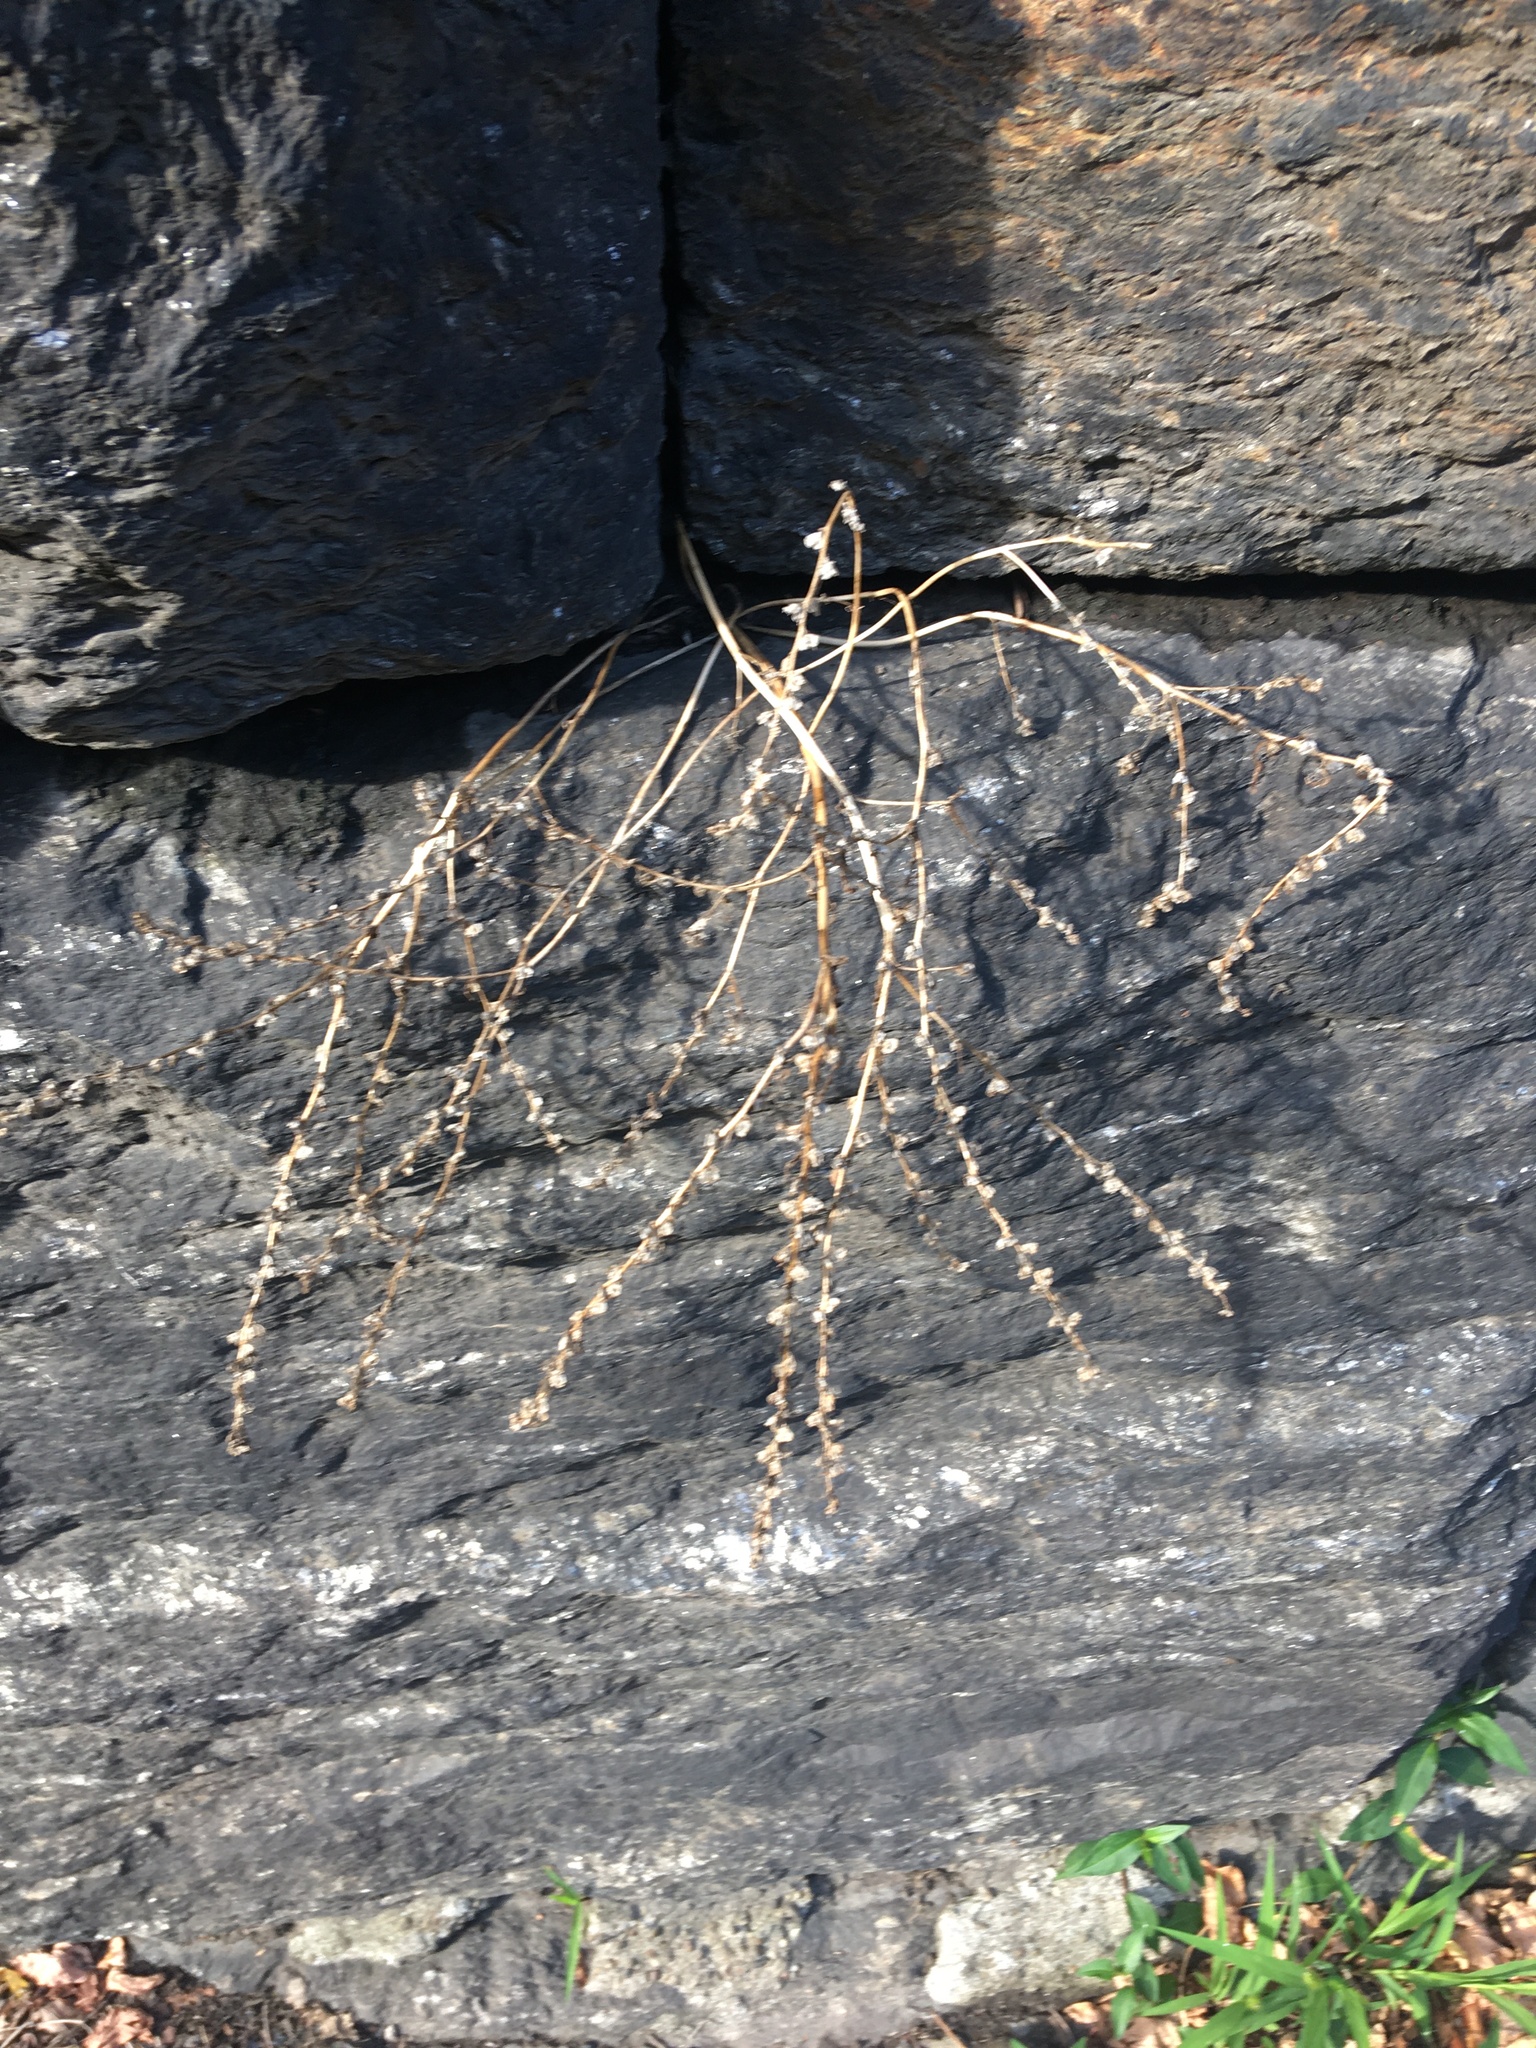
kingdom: Plantae
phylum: Tracheophyta
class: Magnoliopsida
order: Lamiales
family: Plantaginaceae
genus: Veronica
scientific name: Veronica peregrina
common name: Neckweed
